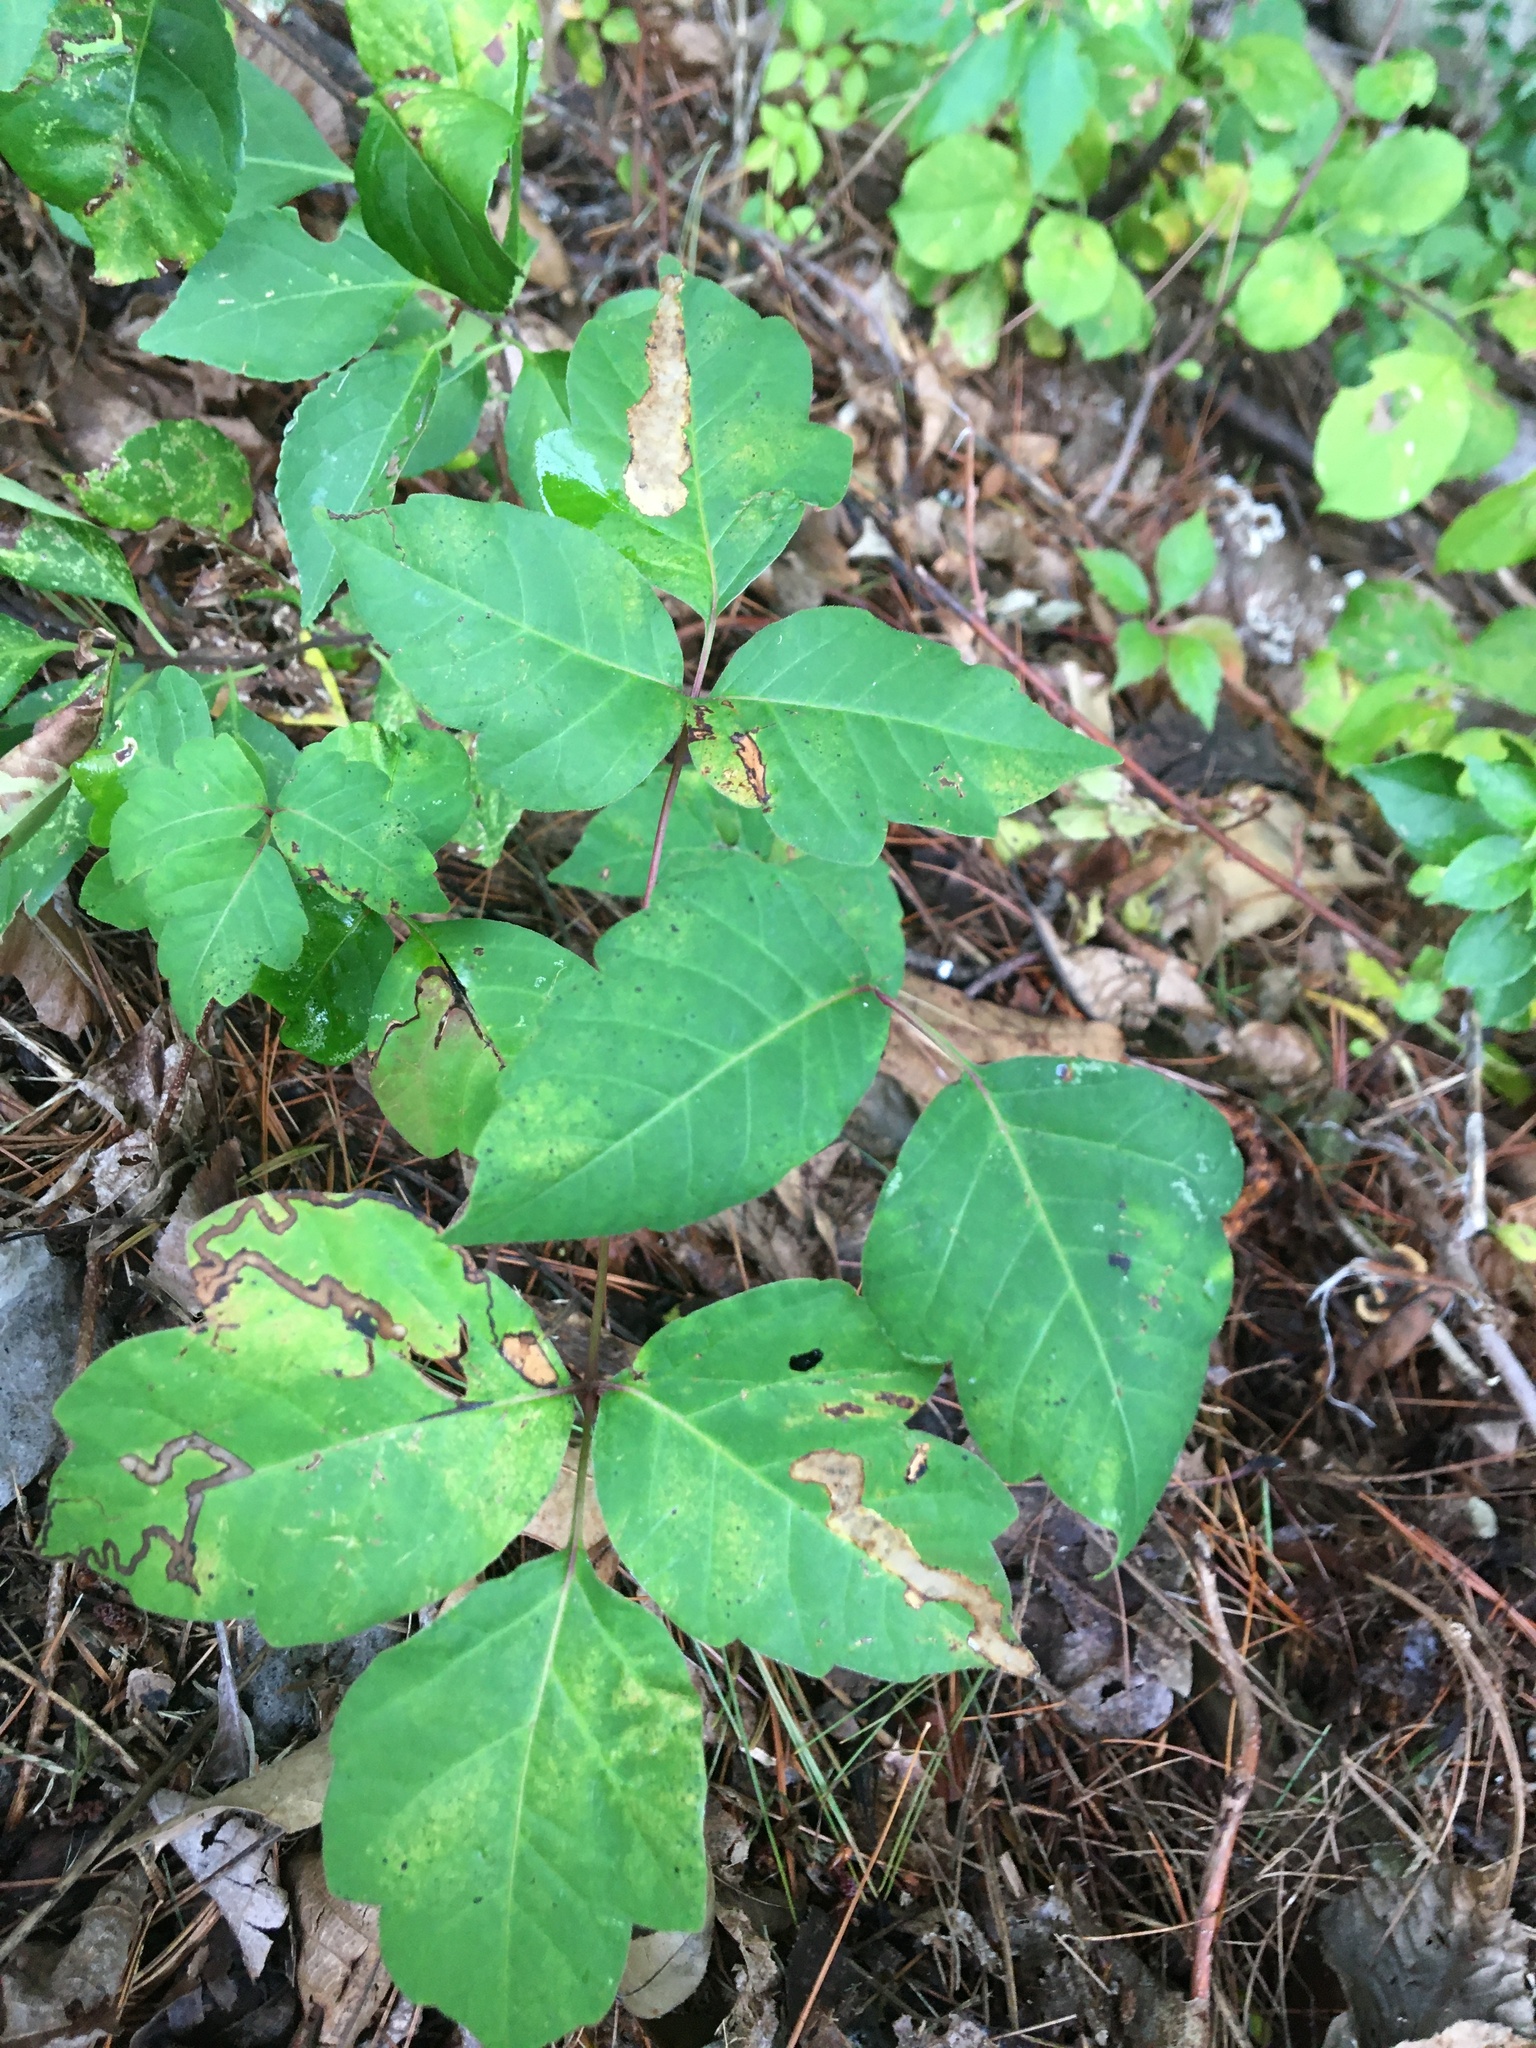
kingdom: Animalia
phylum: Arthropoda
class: Insecta
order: Lepidoptera
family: Nepticulidae
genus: Stigmella
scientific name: Stigmella rhoifoliella
